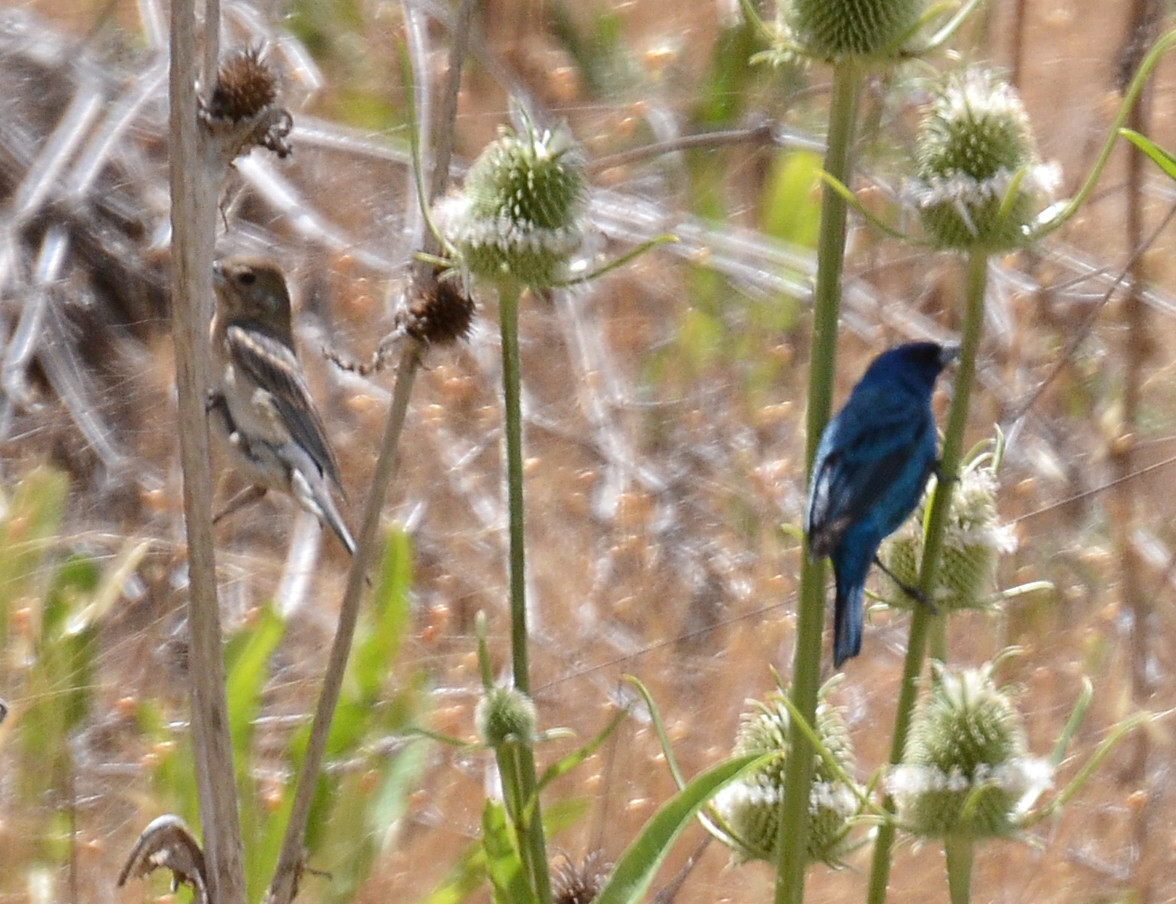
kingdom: Animalia
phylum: Chordata
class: Aves
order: Passeriformes
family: Cardinalidae
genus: Passerina
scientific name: Passerina cyanea
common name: Indigo bunting
